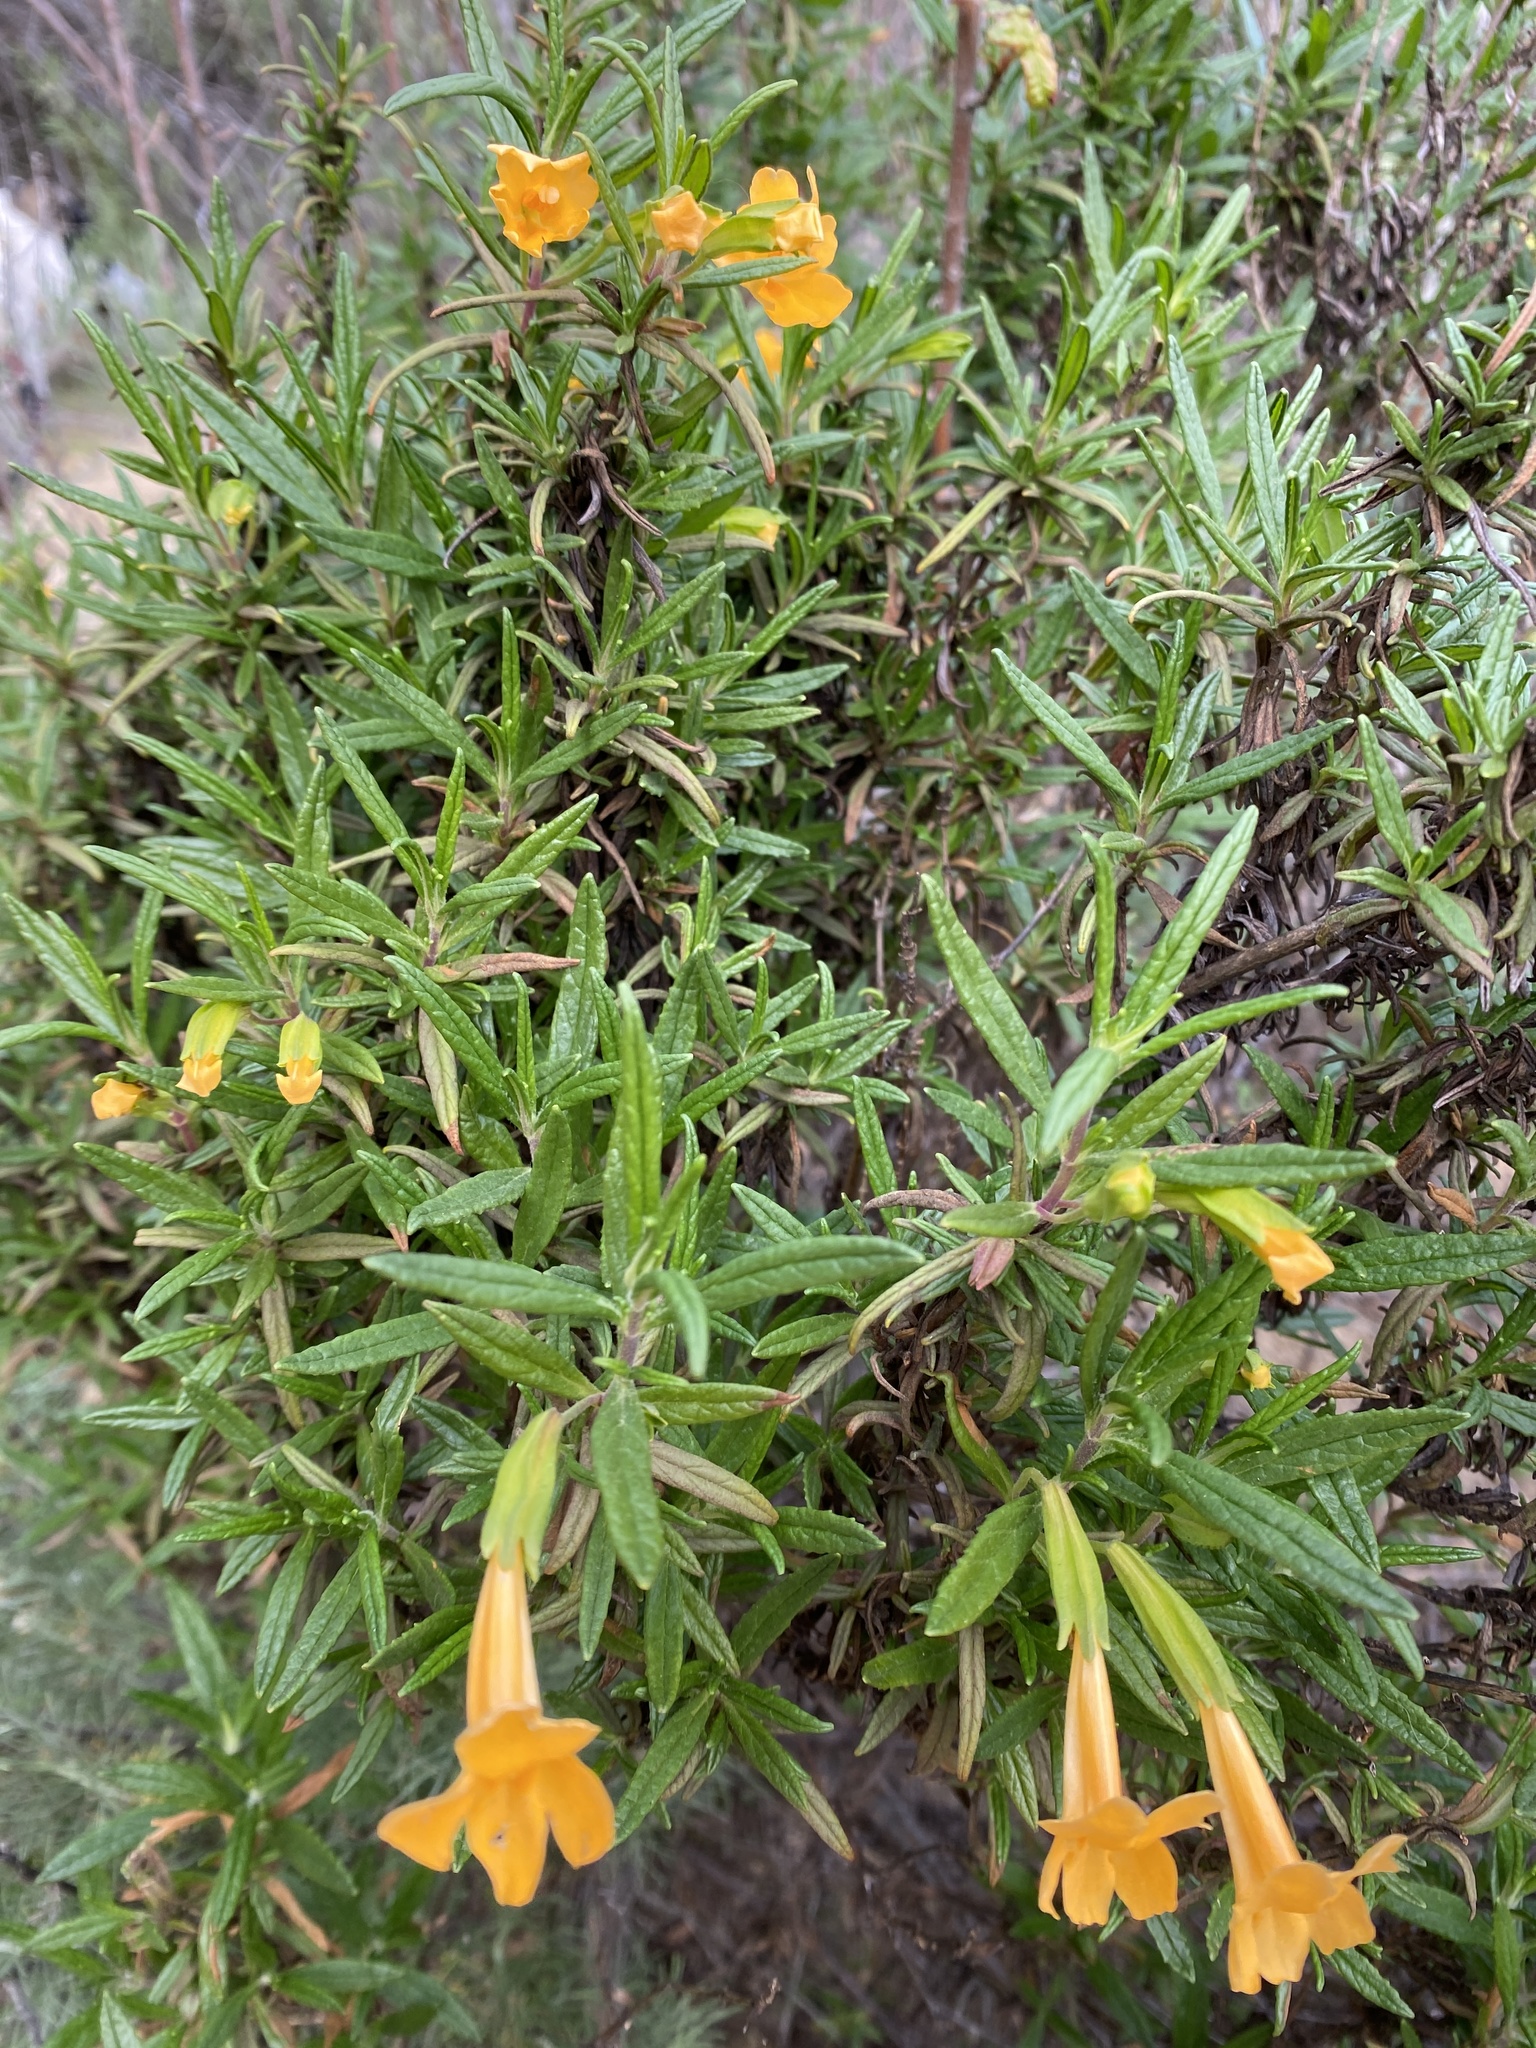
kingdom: Plantae
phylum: Tracheophyta
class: Magnoliopsida
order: Lamiales
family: Phrymaceae
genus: Diplacus
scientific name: Diplacus aurantiacus
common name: Bush monkey-flower
